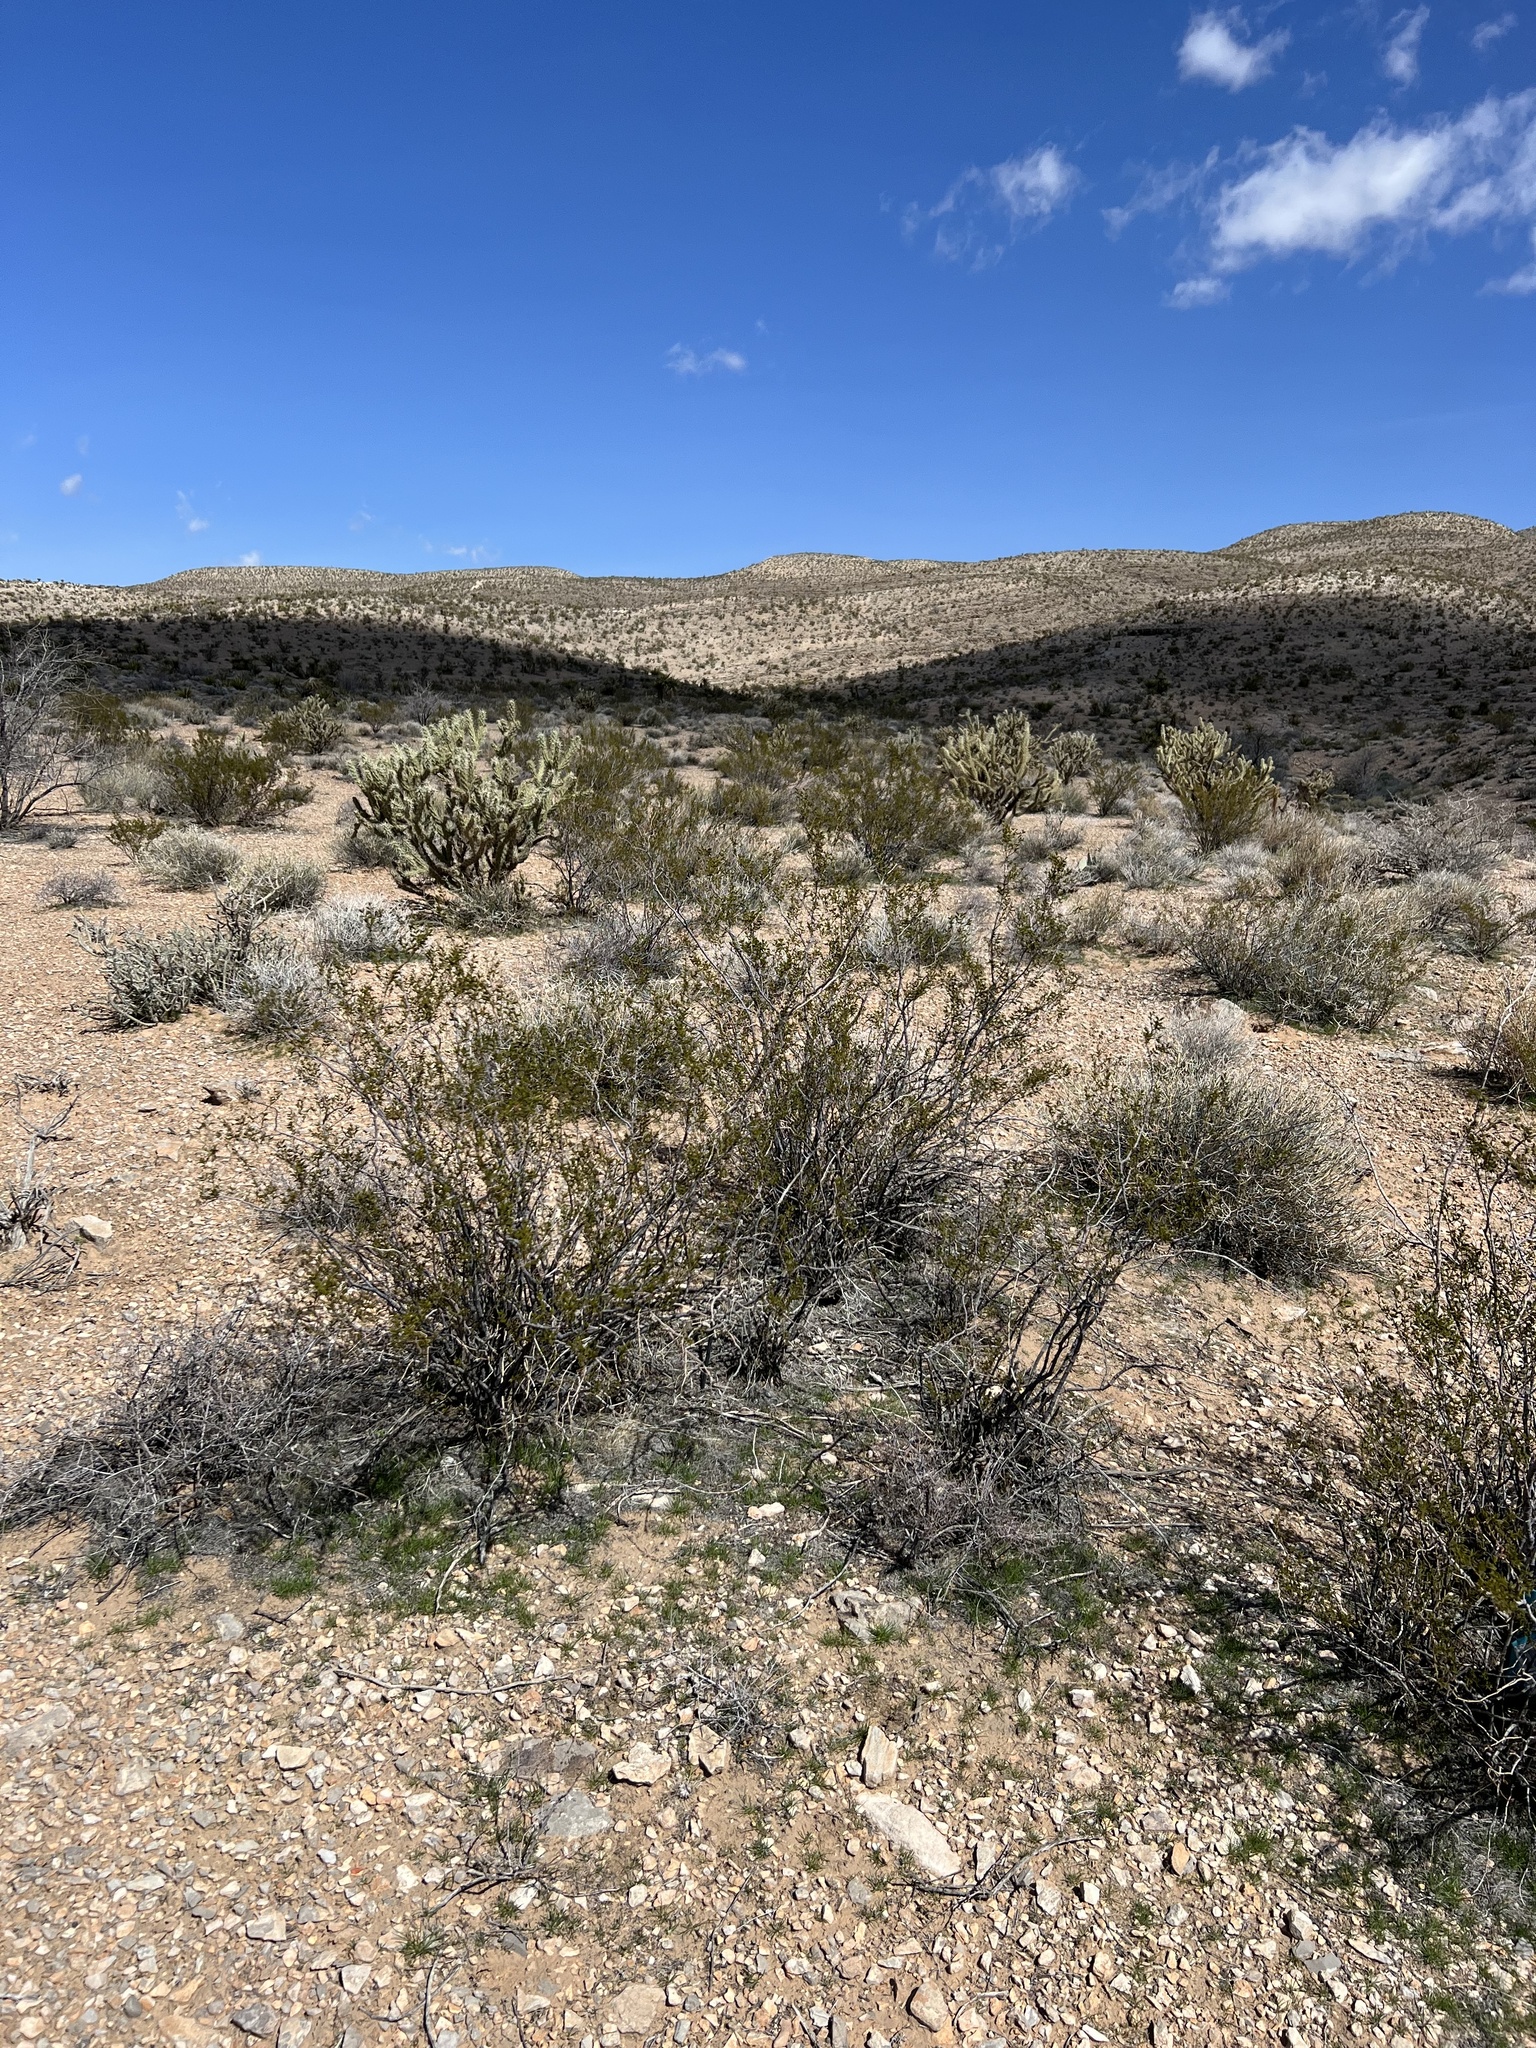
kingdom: Plantae
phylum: Tracheophyta
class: Magnoliopsida
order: Zygophyllales
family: Zygophyllaceae
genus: Larrea
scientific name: Larrea tridentata
